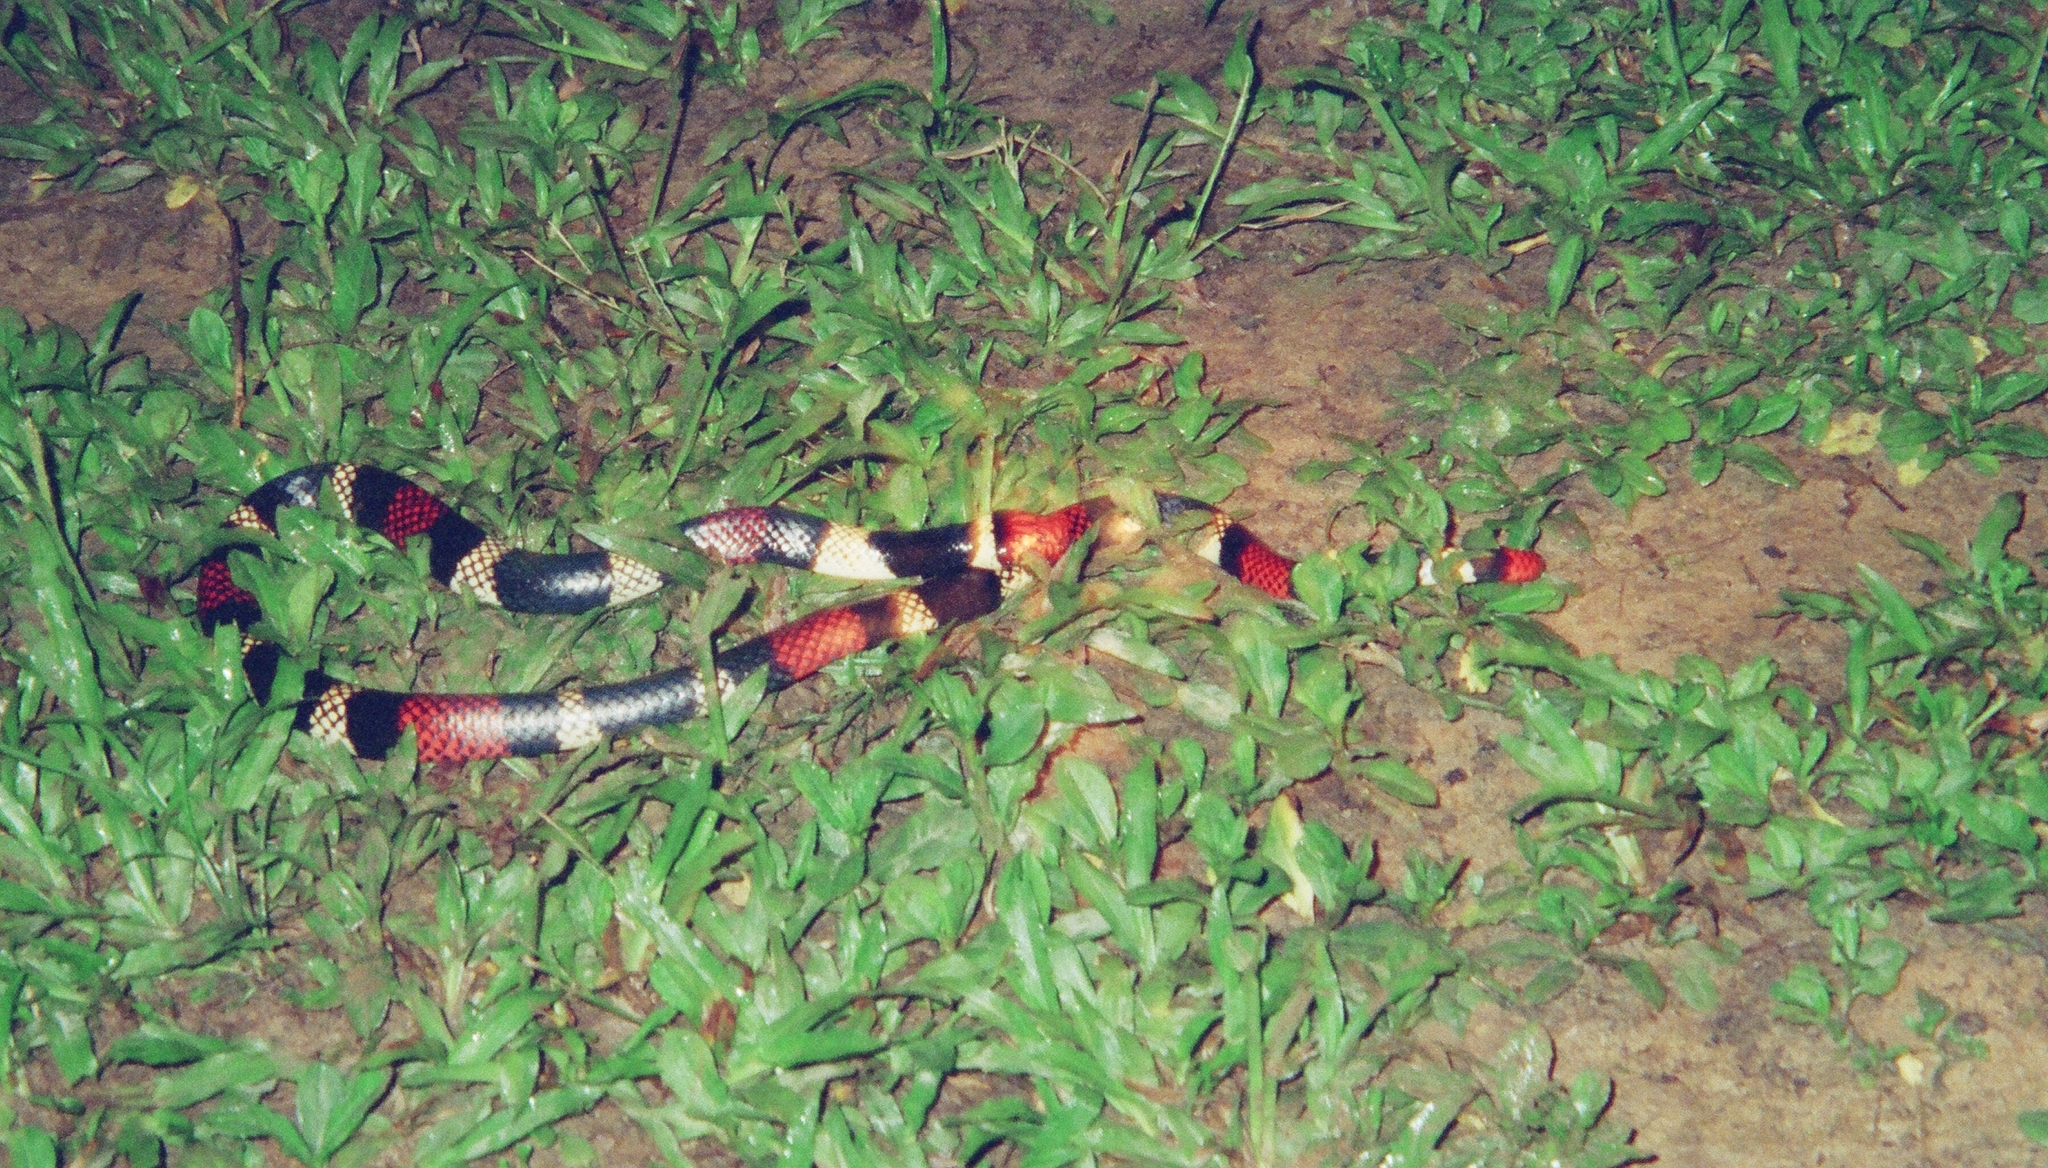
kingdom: Animalia
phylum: Chordata
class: Squamata
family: Elapidae
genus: Micrurus
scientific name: Micrurus surinamensis
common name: Aquatic coral snake
